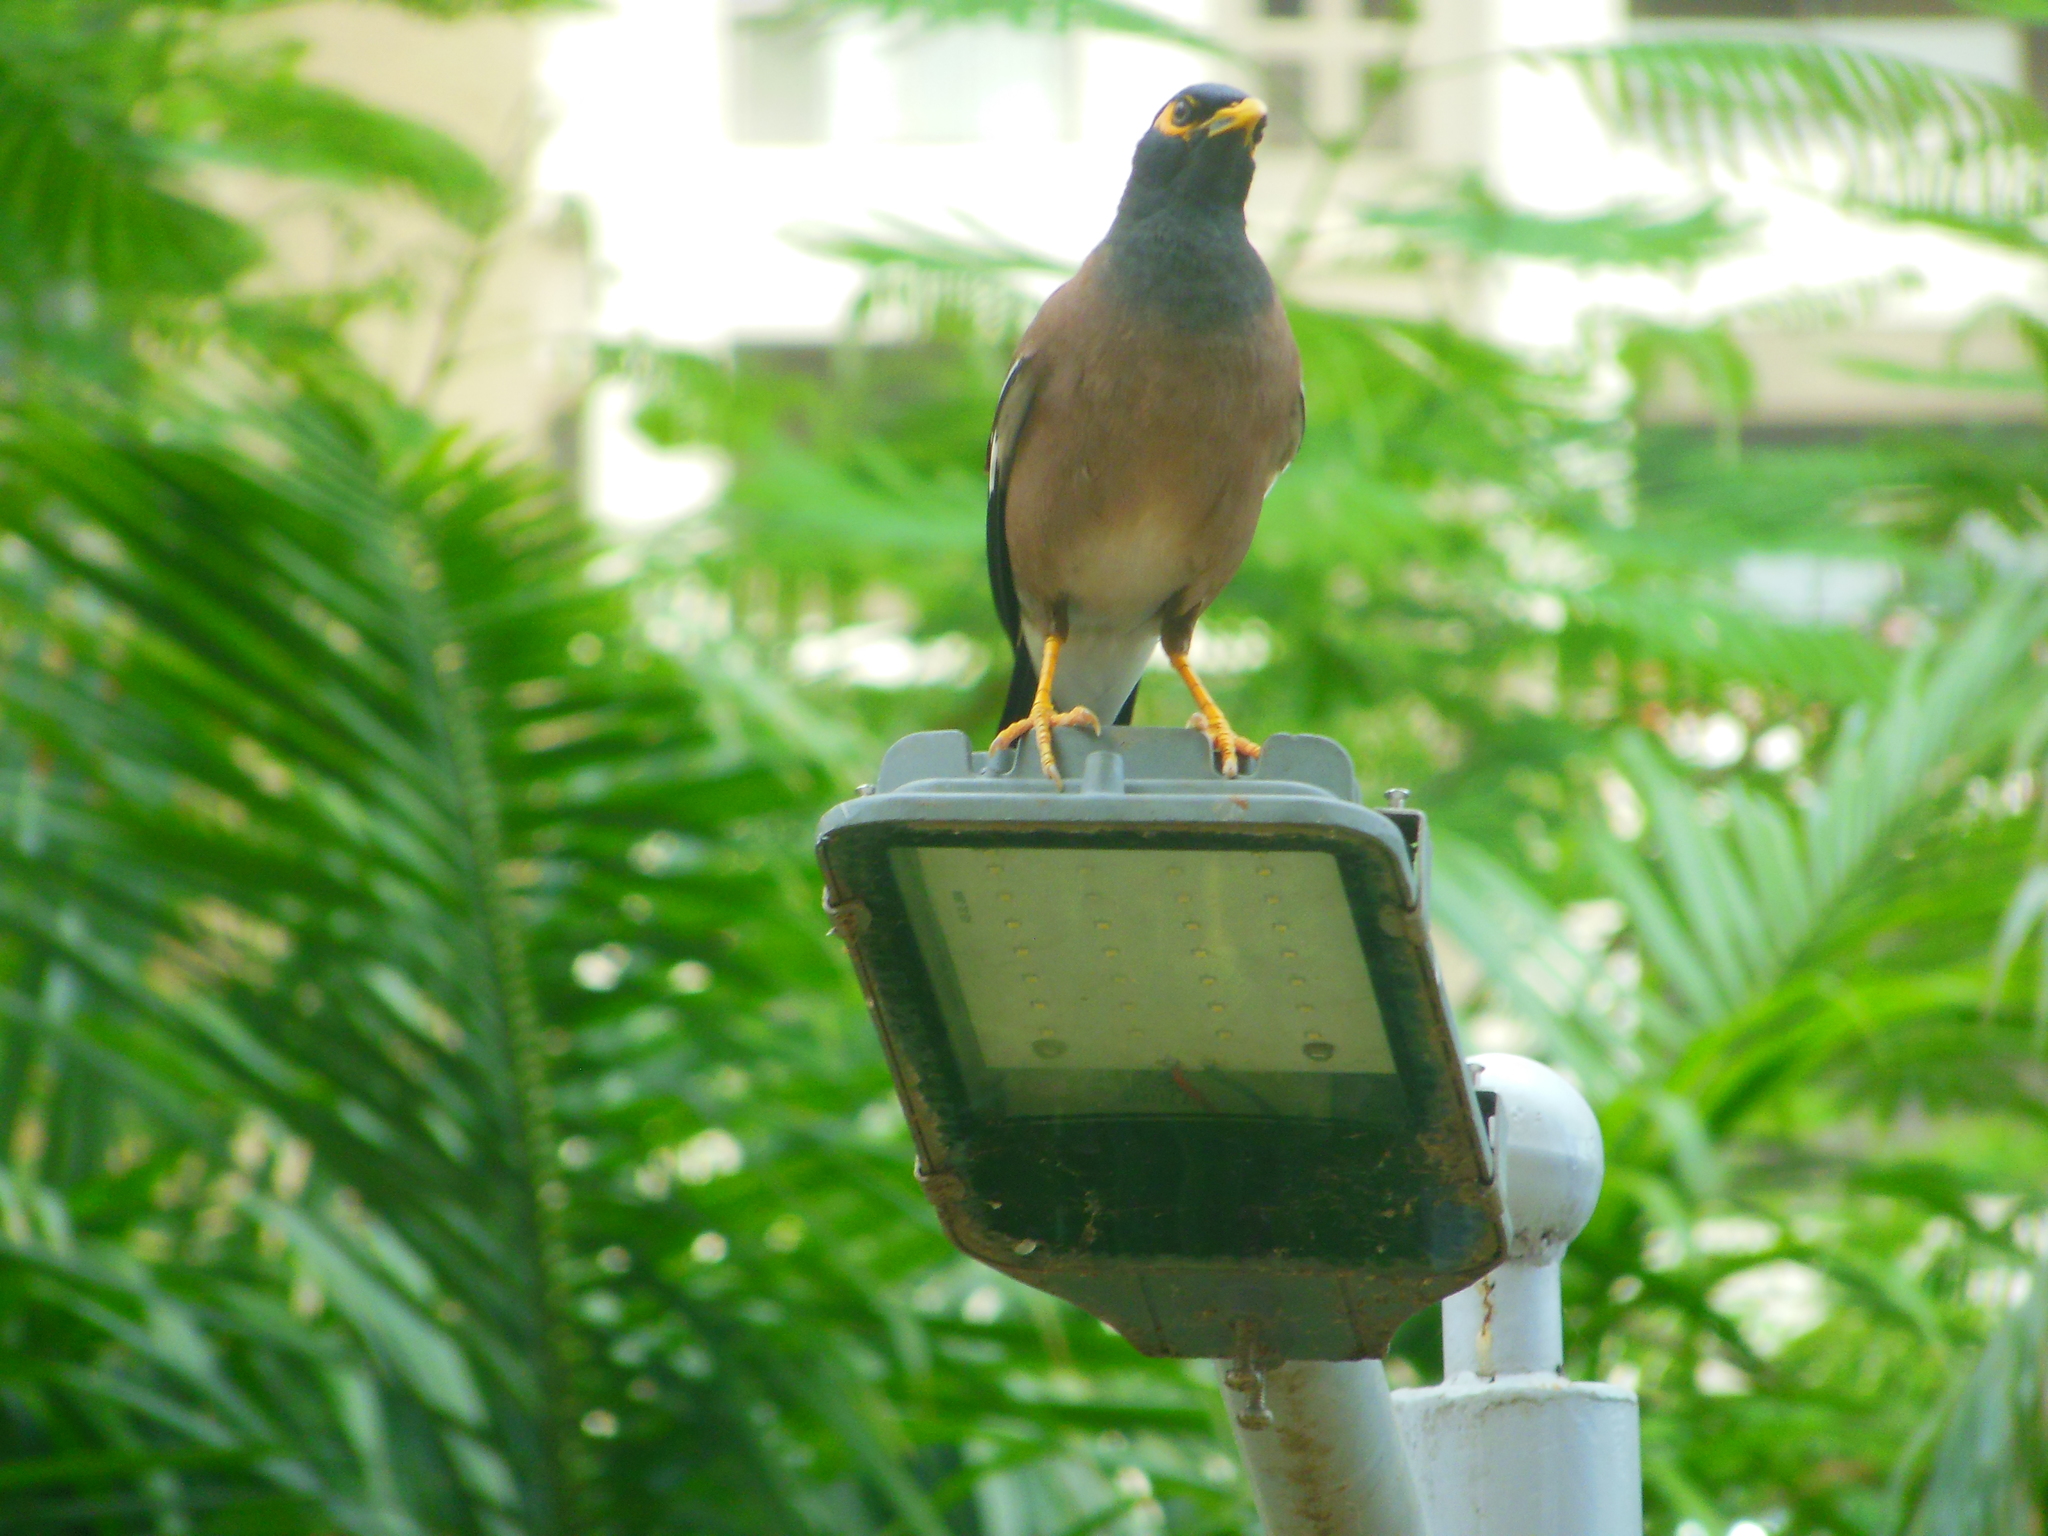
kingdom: Animalia
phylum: Chordata
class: Aves
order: Passeriformes
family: Sturnidae
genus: Acridotheres
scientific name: Acridotheres tristis
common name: Common myna
